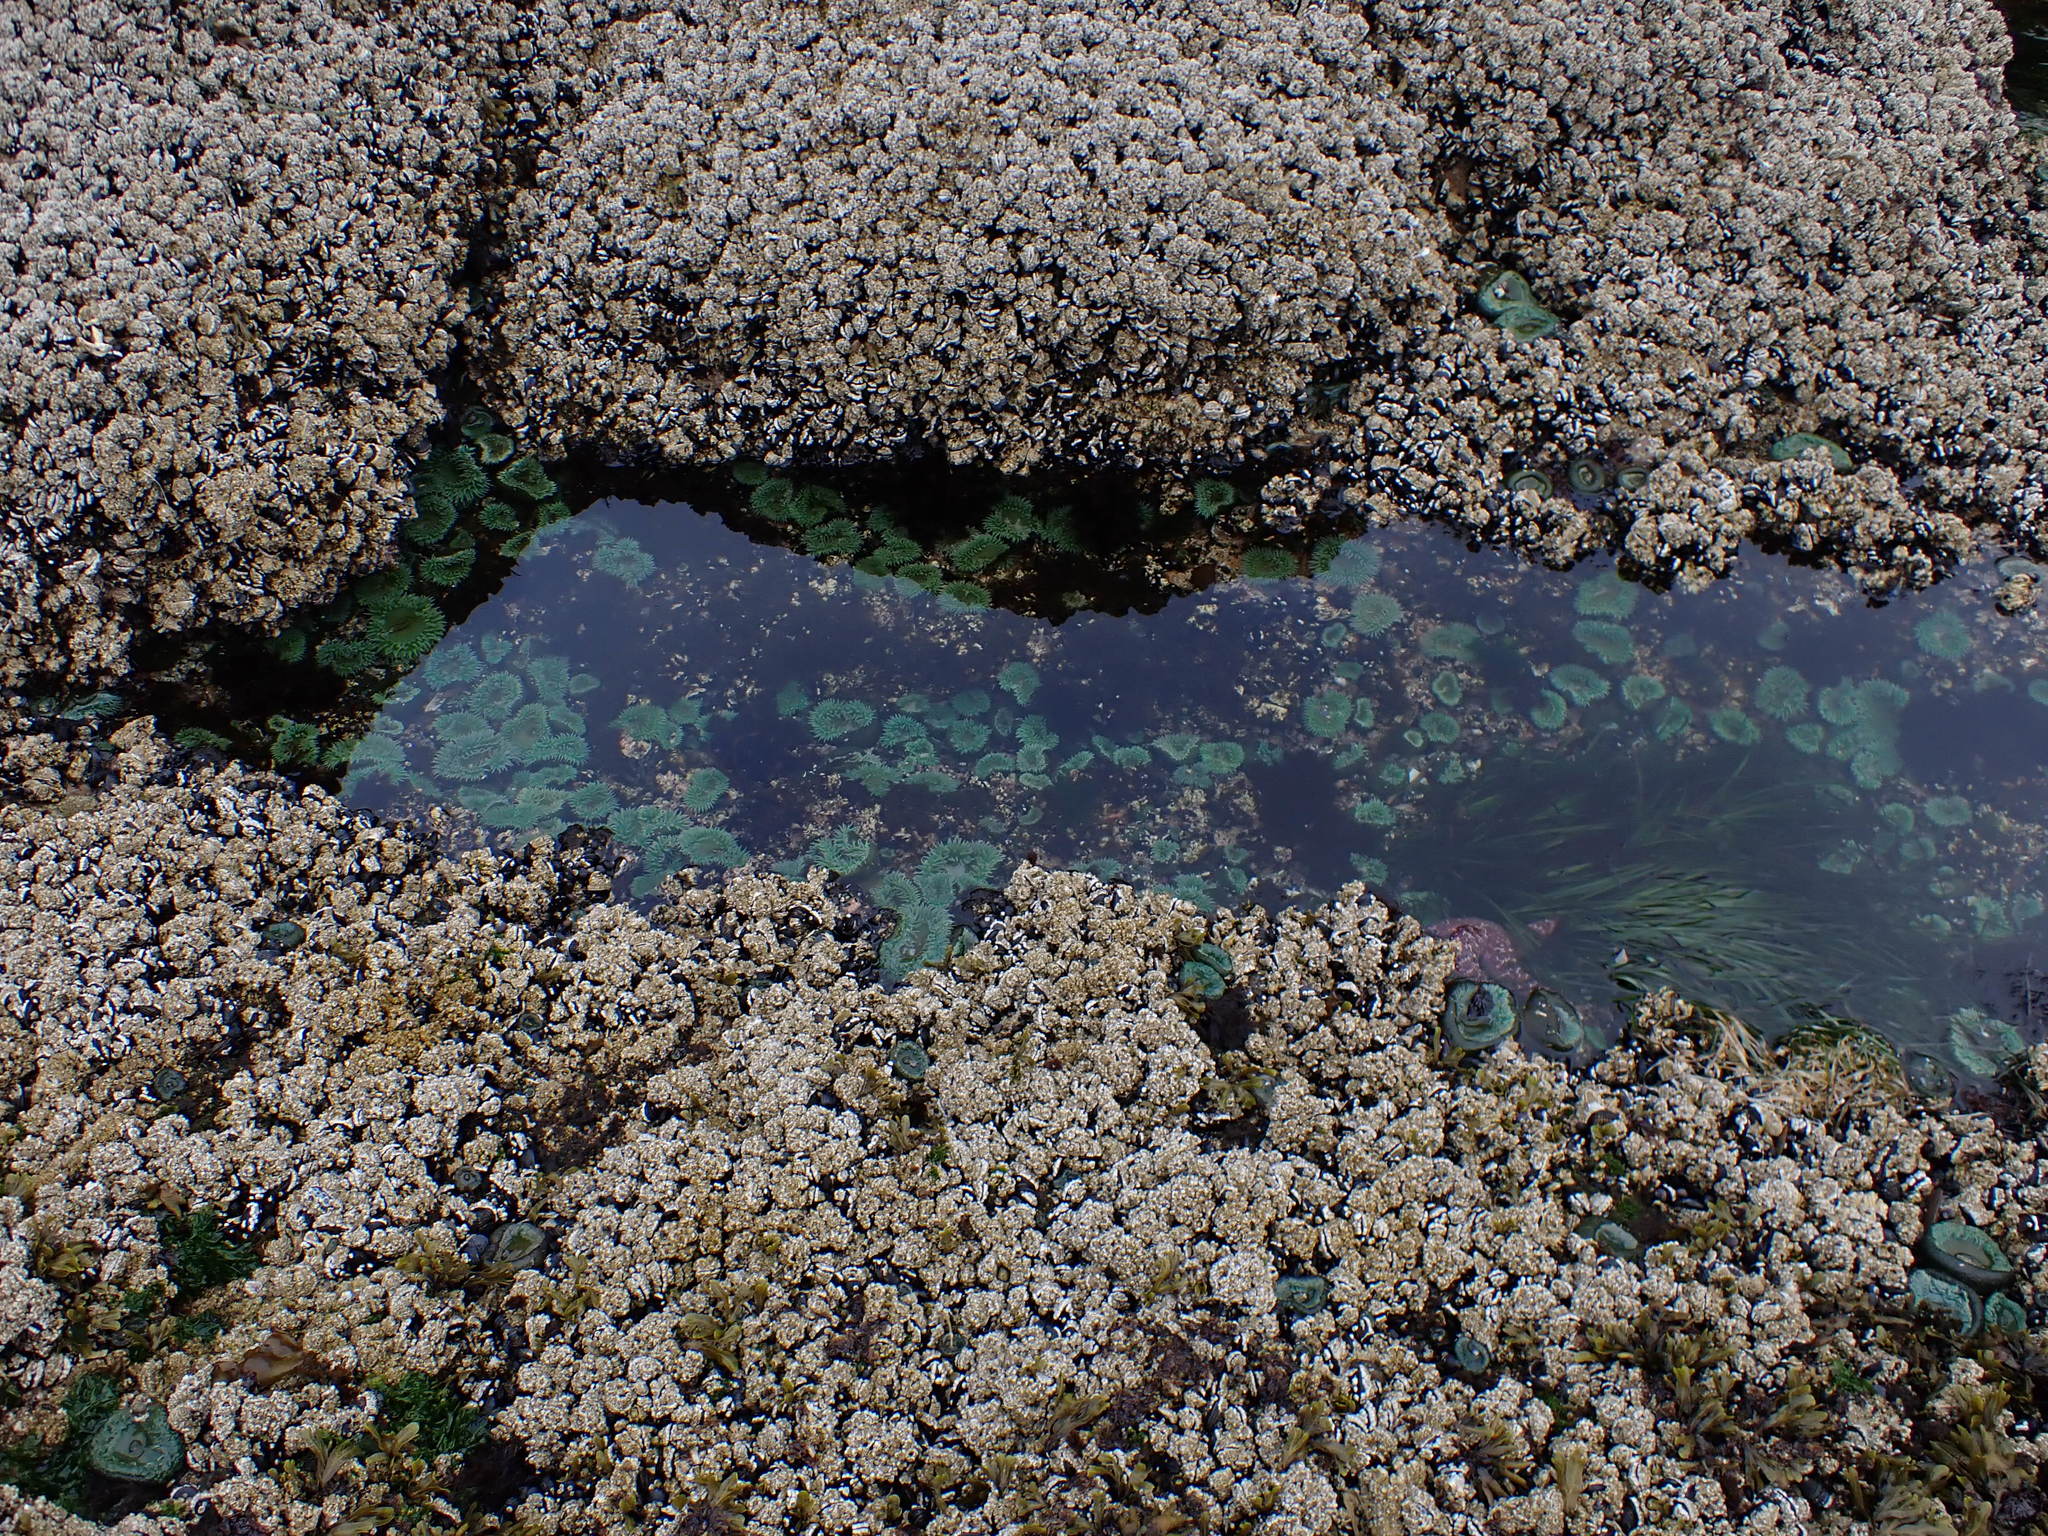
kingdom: Animalia
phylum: Cnidaria
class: Anthozoa
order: Actiniaria
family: Actiniidae
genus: Anthopleura
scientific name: Anthopleura xanthogrammica
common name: Giant green anemone
